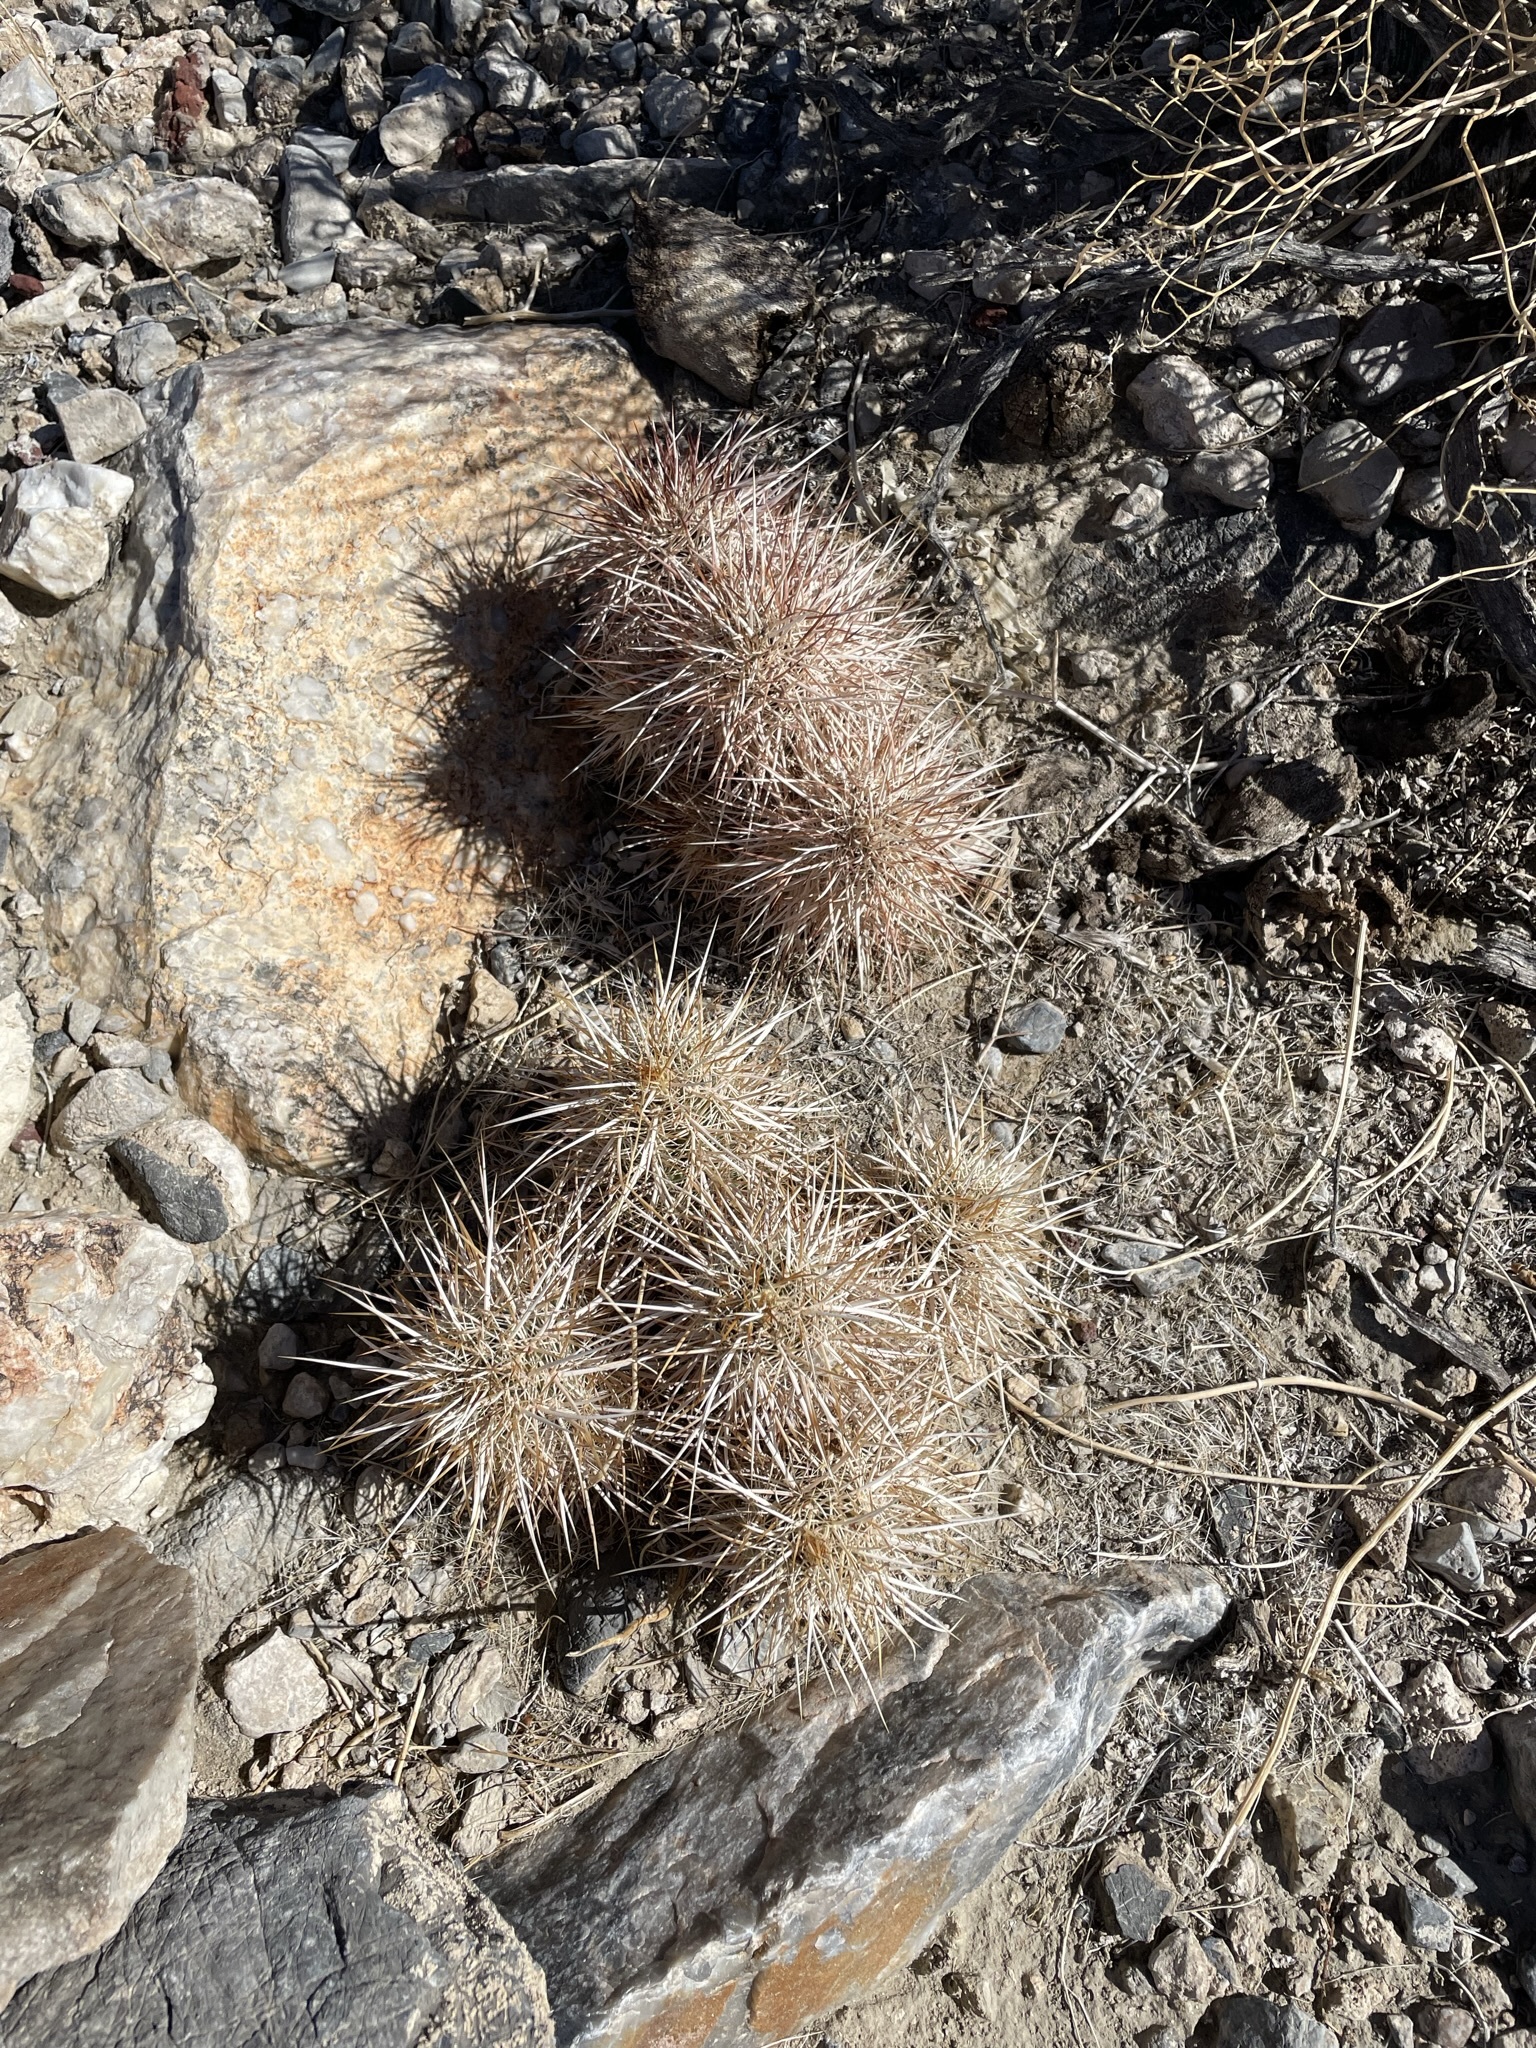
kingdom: Plantae
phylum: Tracheophyta
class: Magnoliopsida
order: Caryophyllales
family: Cactaceae
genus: Echinocereus
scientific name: Echinocereus engelmannii
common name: Engelmann's hedgehog cactus
